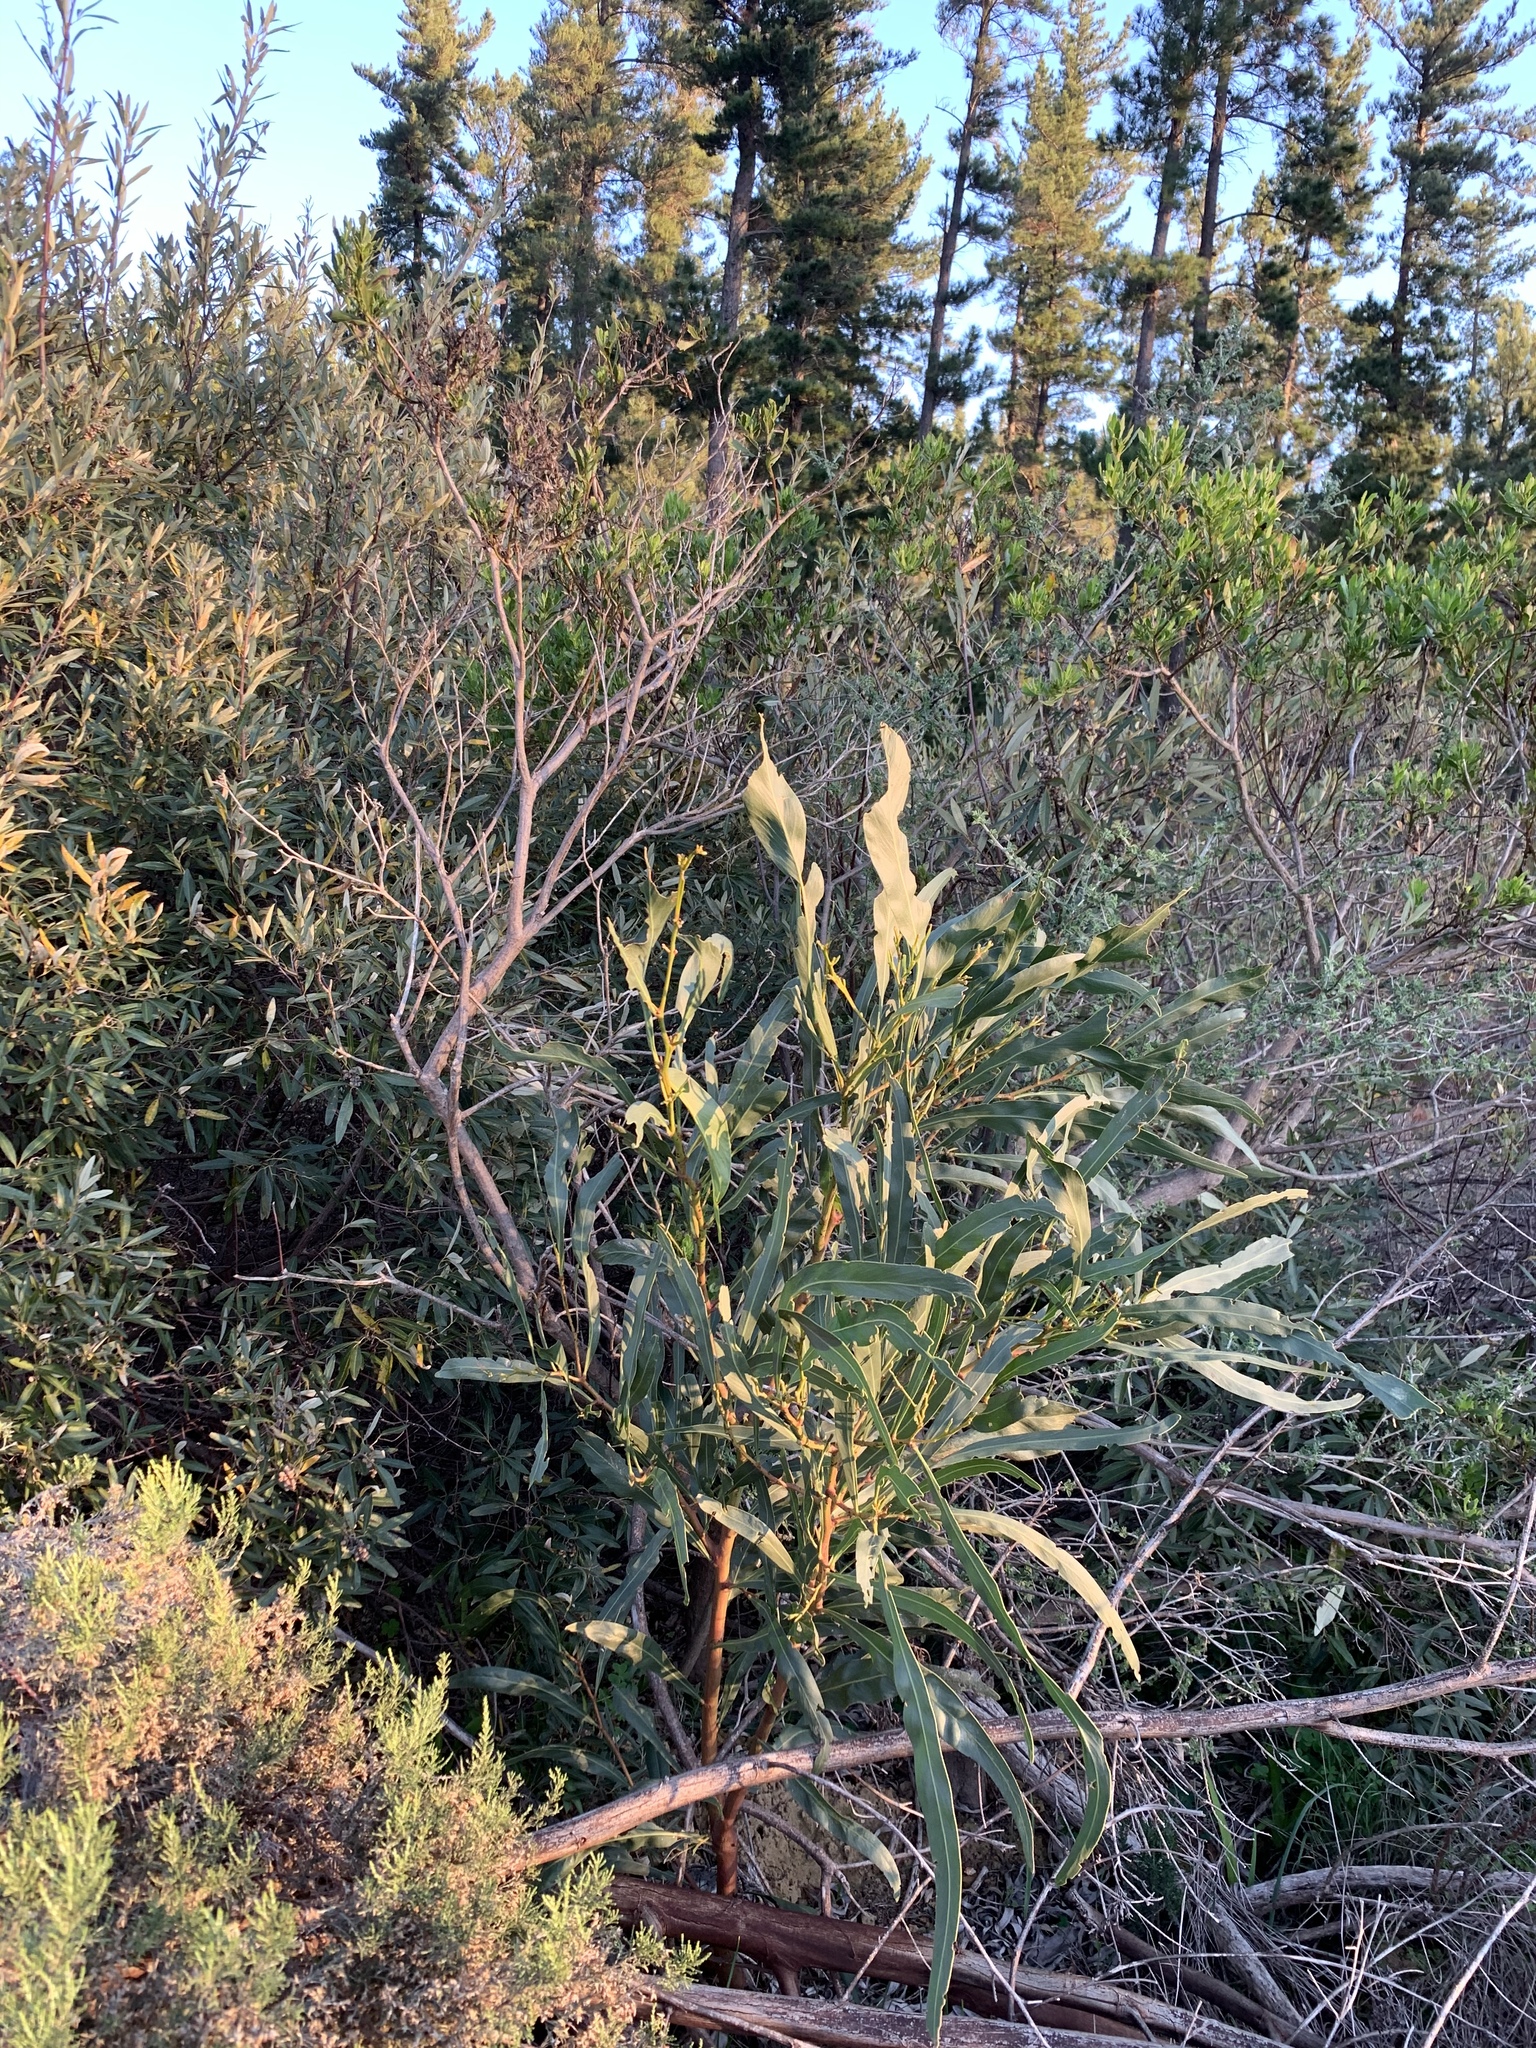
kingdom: Plantae
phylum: Tracheophyta
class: Magnoliopsida
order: Fabales
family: Fabaceae
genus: Acacia
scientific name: Acacia saligna
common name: Orange wattle
